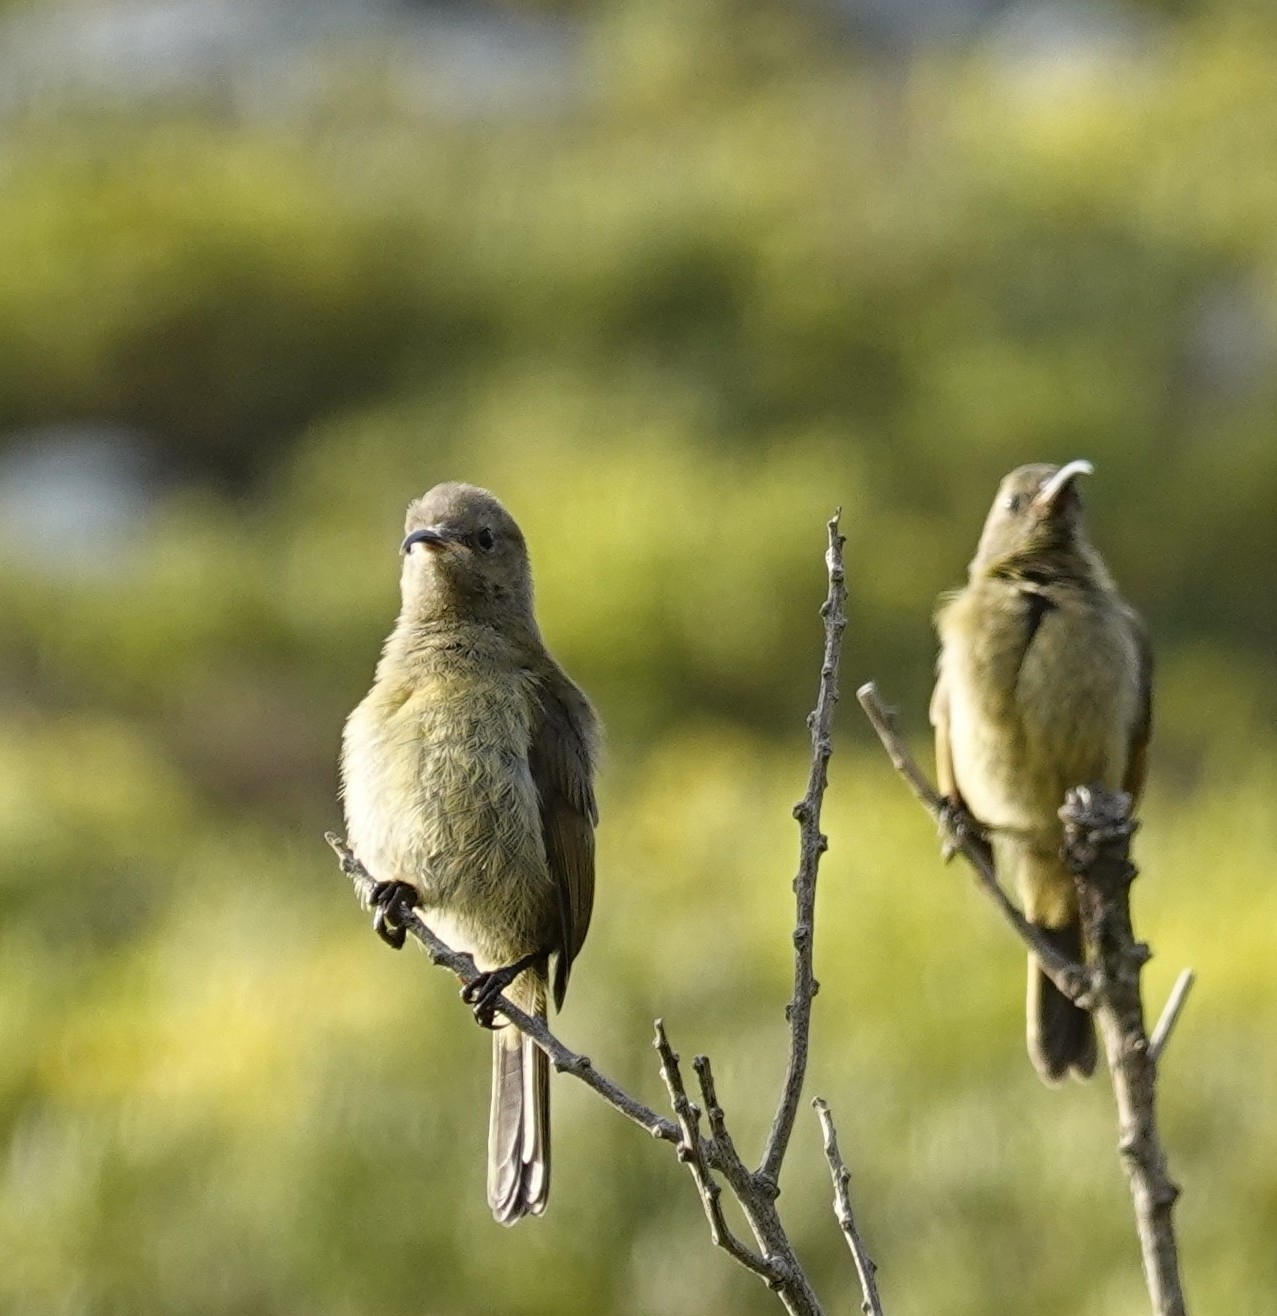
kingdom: Animalia
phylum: Chordata
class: Aves
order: Passeriformes
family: Nectariniidae
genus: Anthobaphes
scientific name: Anthobaphes violacea
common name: Orange-breasted sunbird
